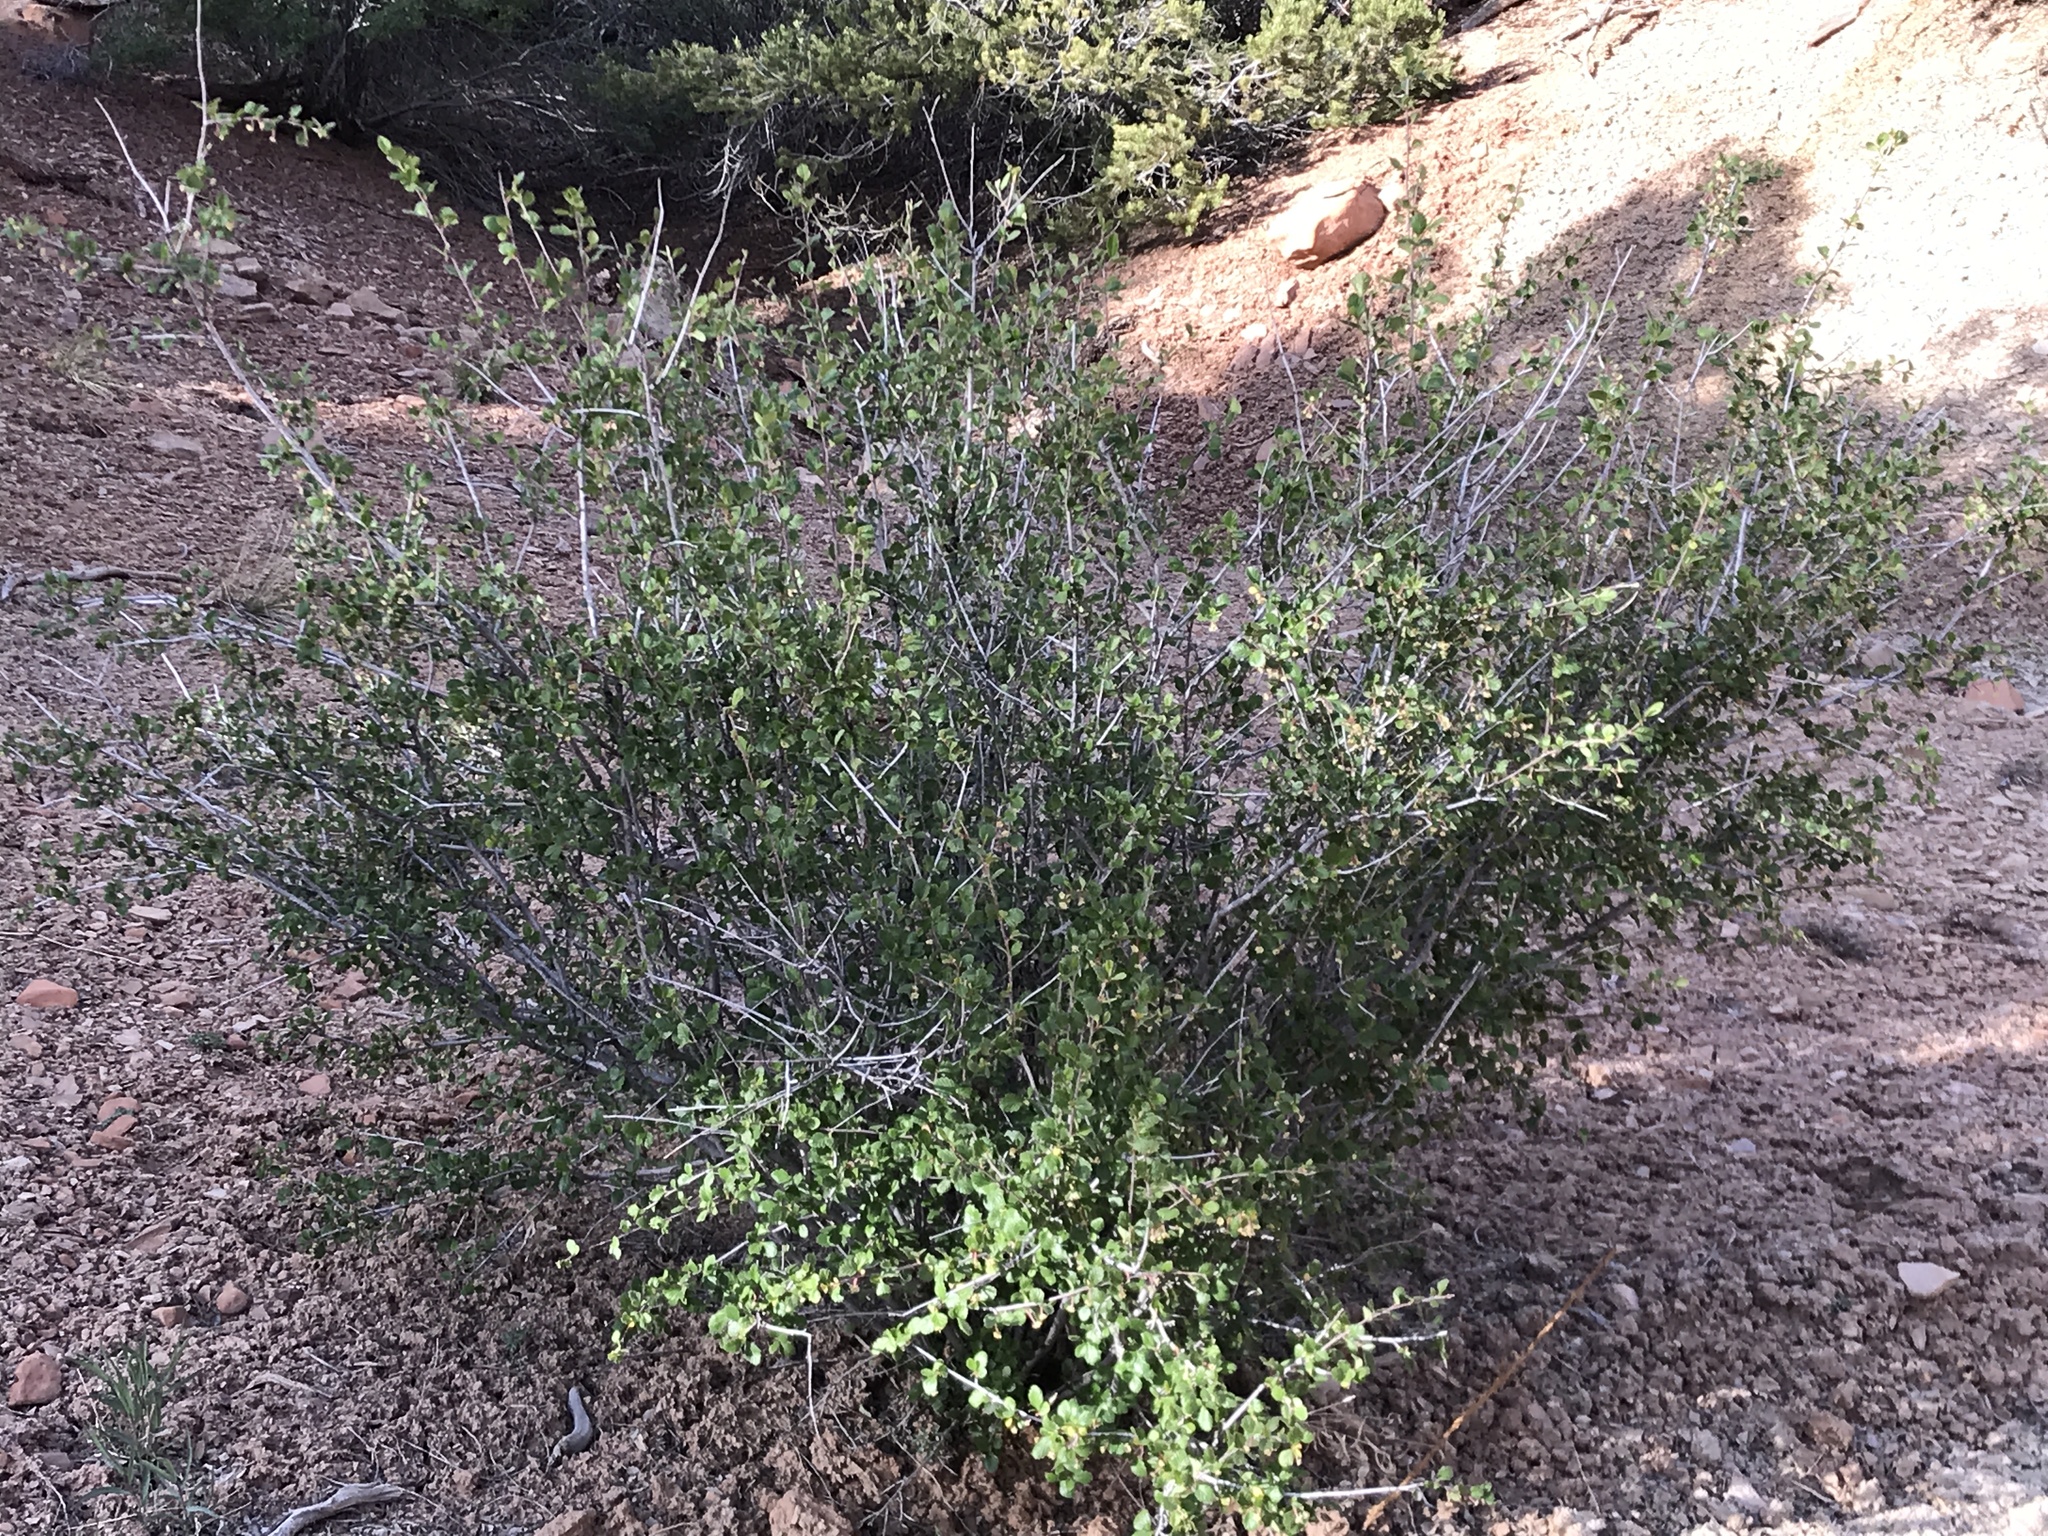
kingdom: Plantae
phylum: Tracheophyta
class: Magnoliopsida
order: Rosales
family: Rosaceae
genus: Cercocarpus
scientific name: Cercocarpus montanus
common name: Alder-leaf cercocarpus
